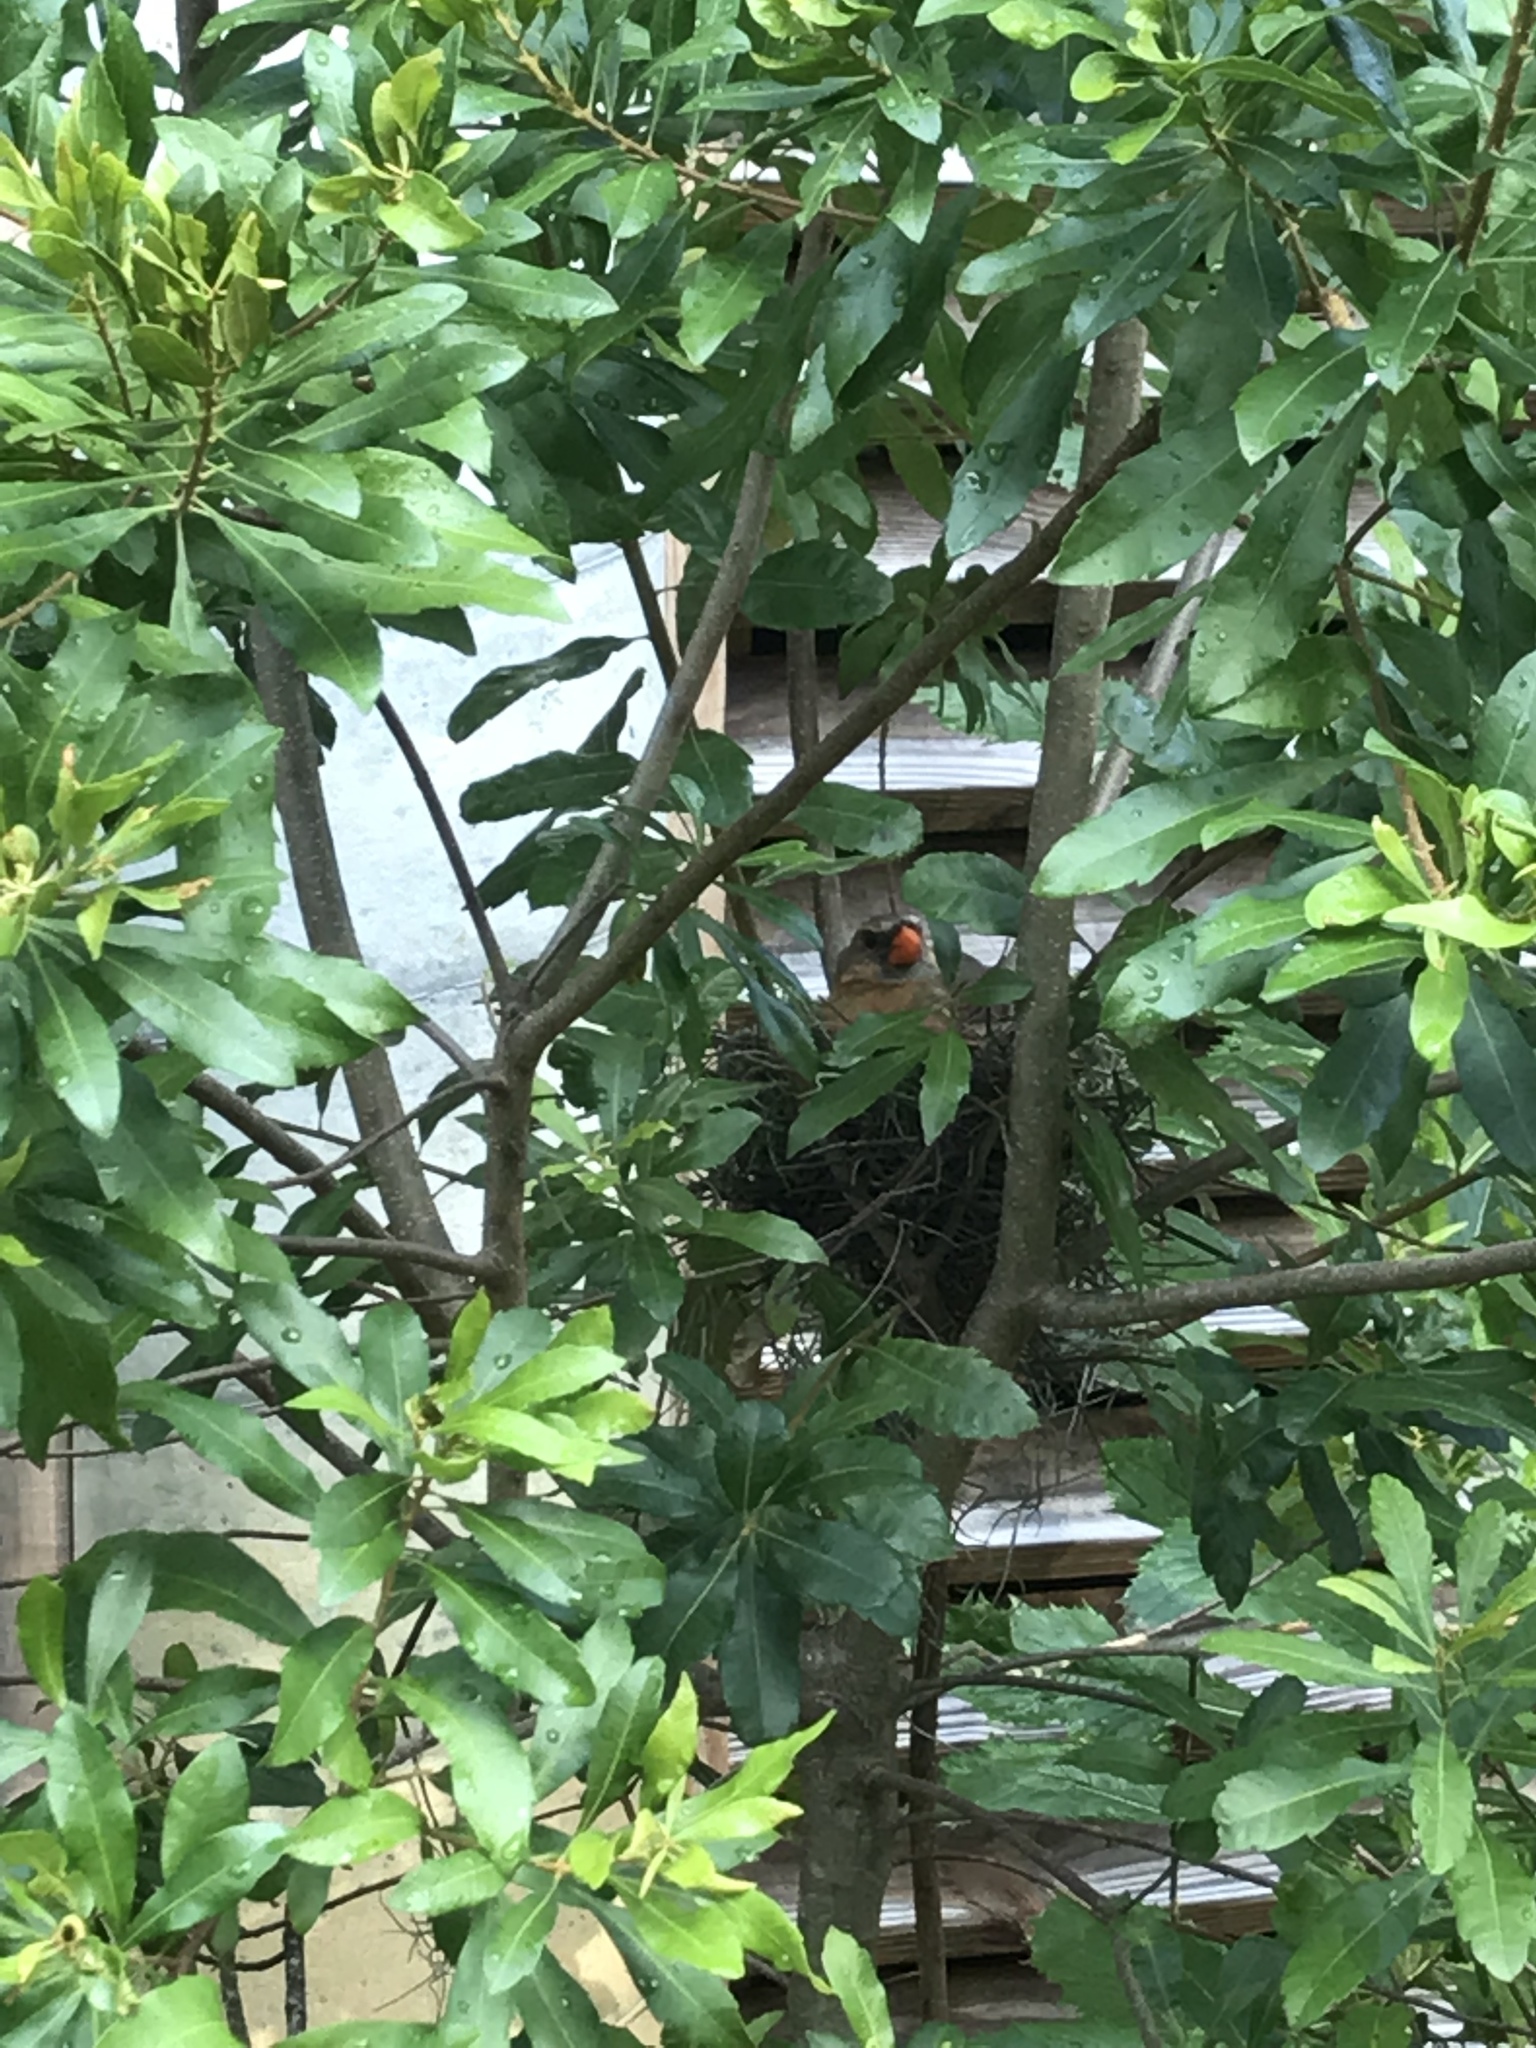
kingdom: Animalia
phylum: Chordata
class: Aves
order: Passeriformes
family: Cardinalidae
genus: Cardinalis
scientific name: Cardinalis cardinalis
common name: Northern cardinal
